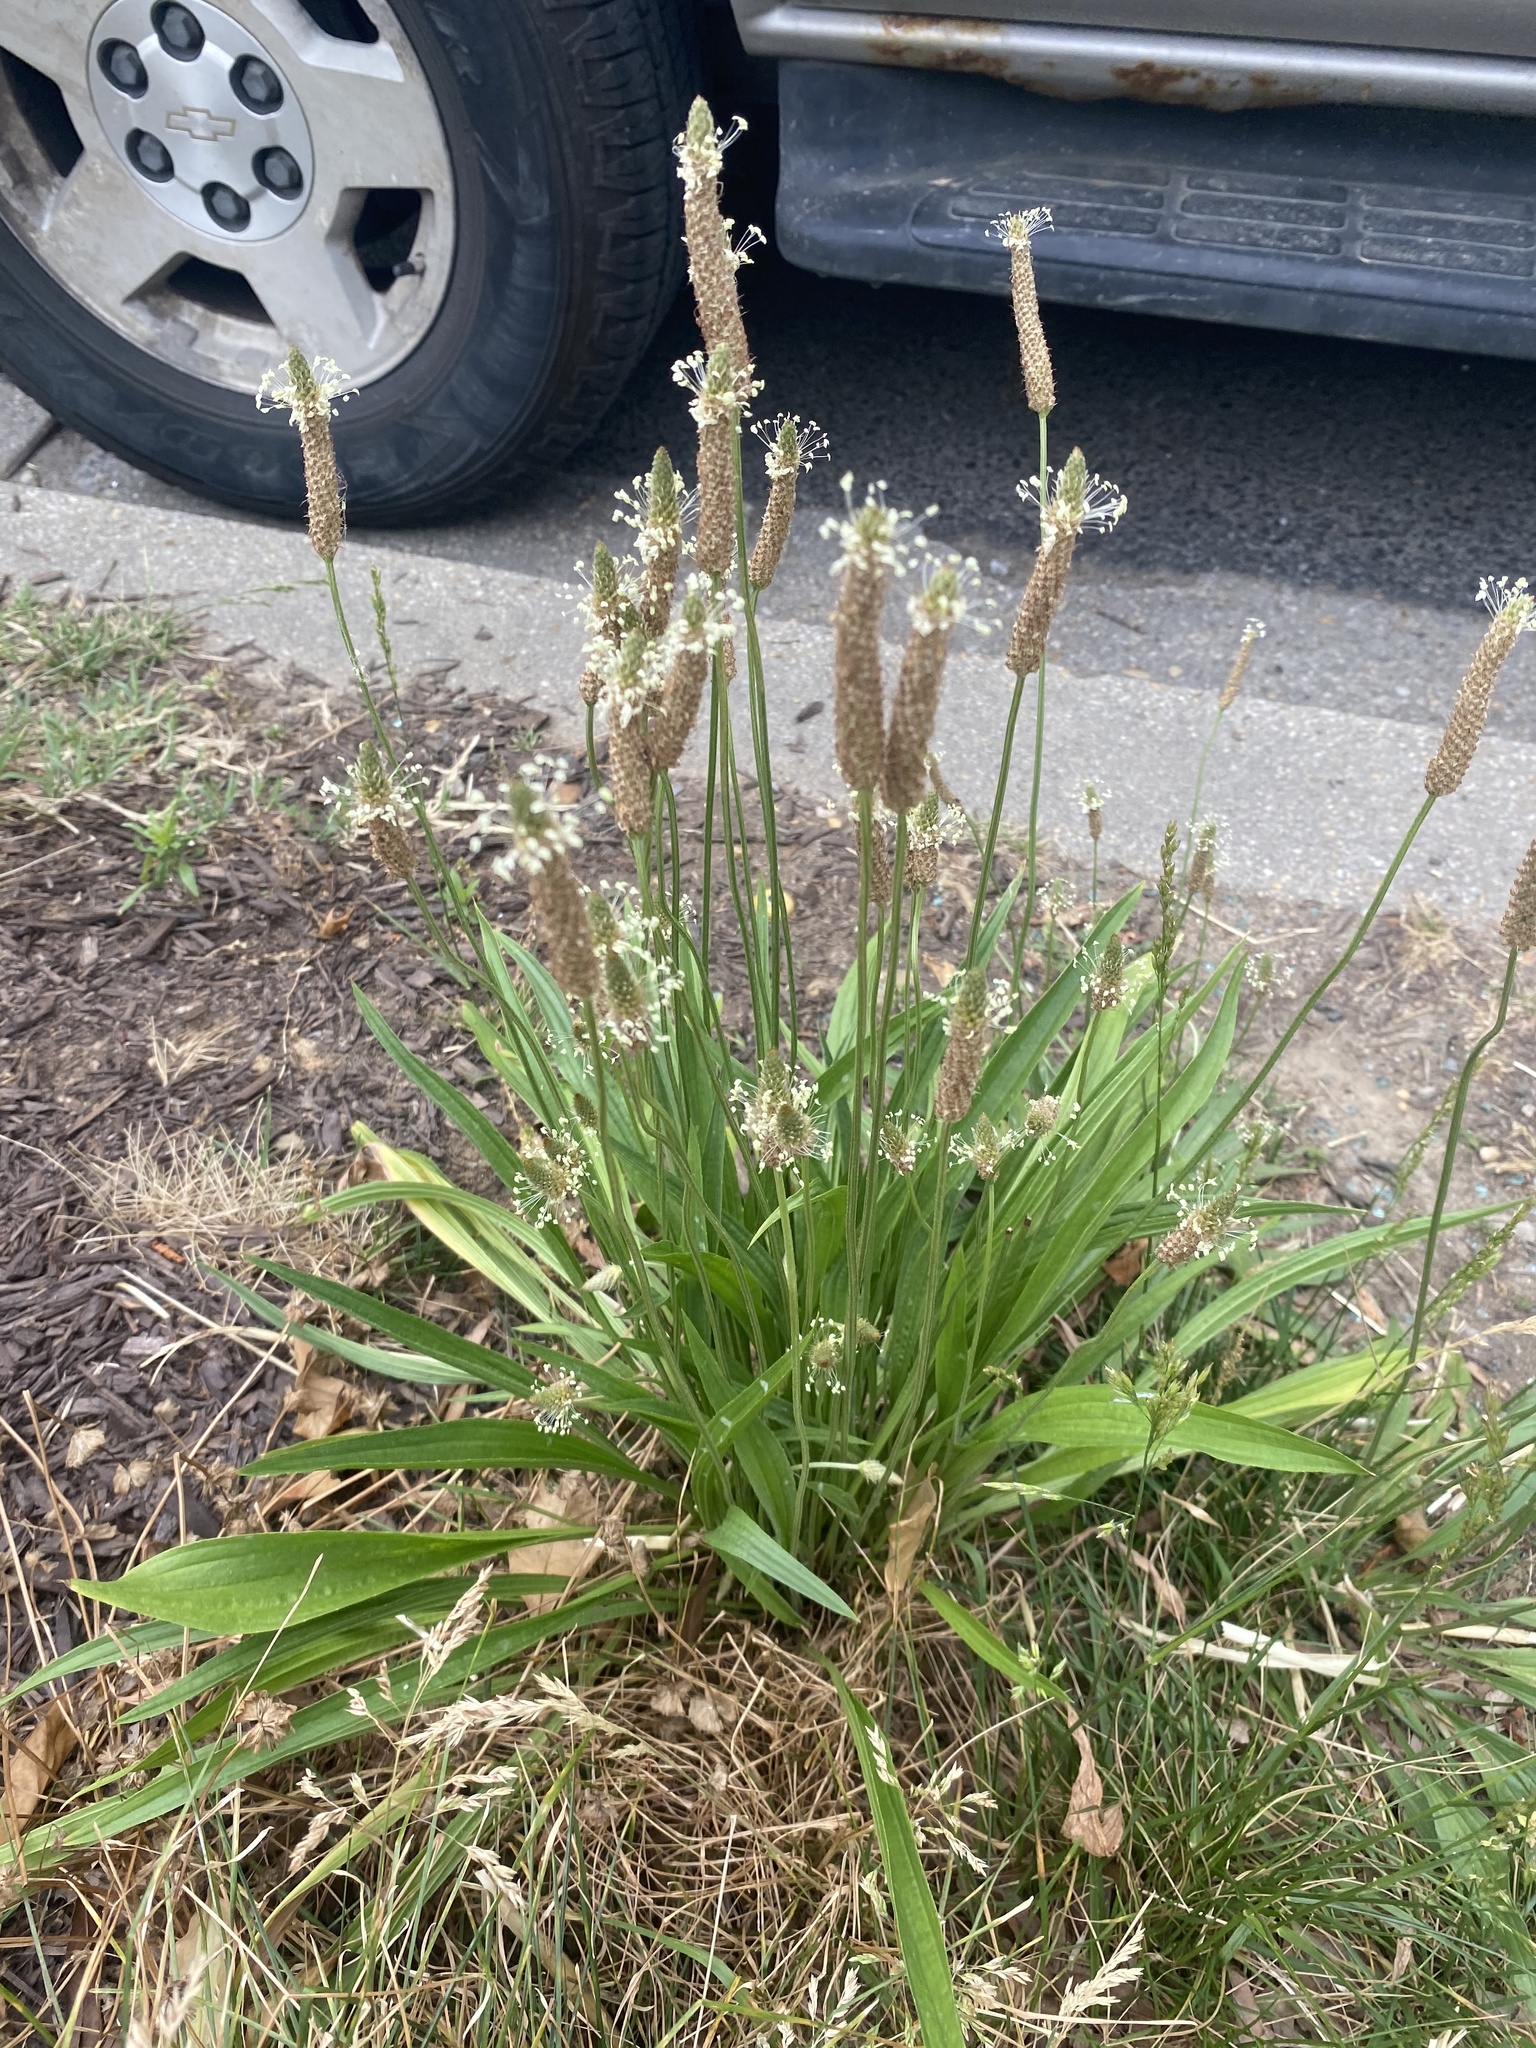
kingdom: Plantae
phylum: Tracheophyta
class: Magnoliopsida
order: Lamiales
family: Plantaginaceae
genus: Plantago
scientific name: Plantago lanceolata
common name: Ribwort plantain
